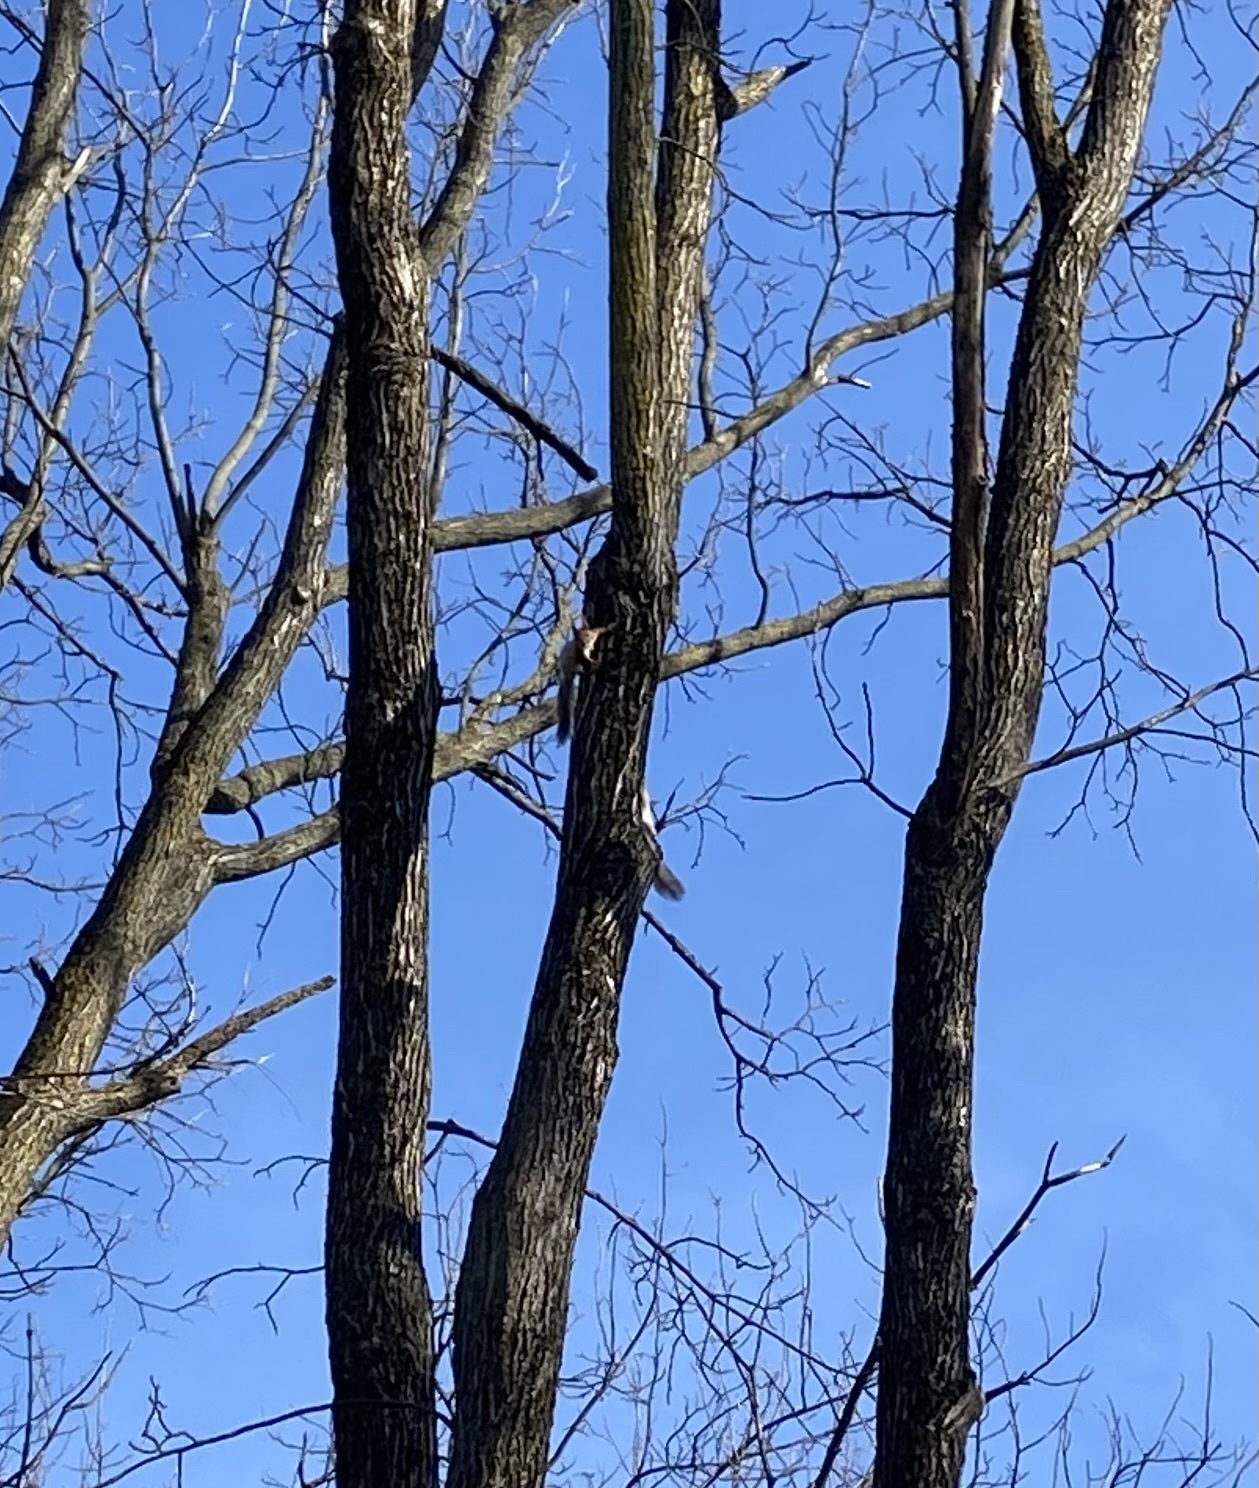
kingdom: Animalia
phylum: Chordata
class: Mammalia
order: Rodentia
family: Sciuridae
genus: Sciurus
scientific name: Sciurus vulgaris
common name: Eurasian red squirrel
